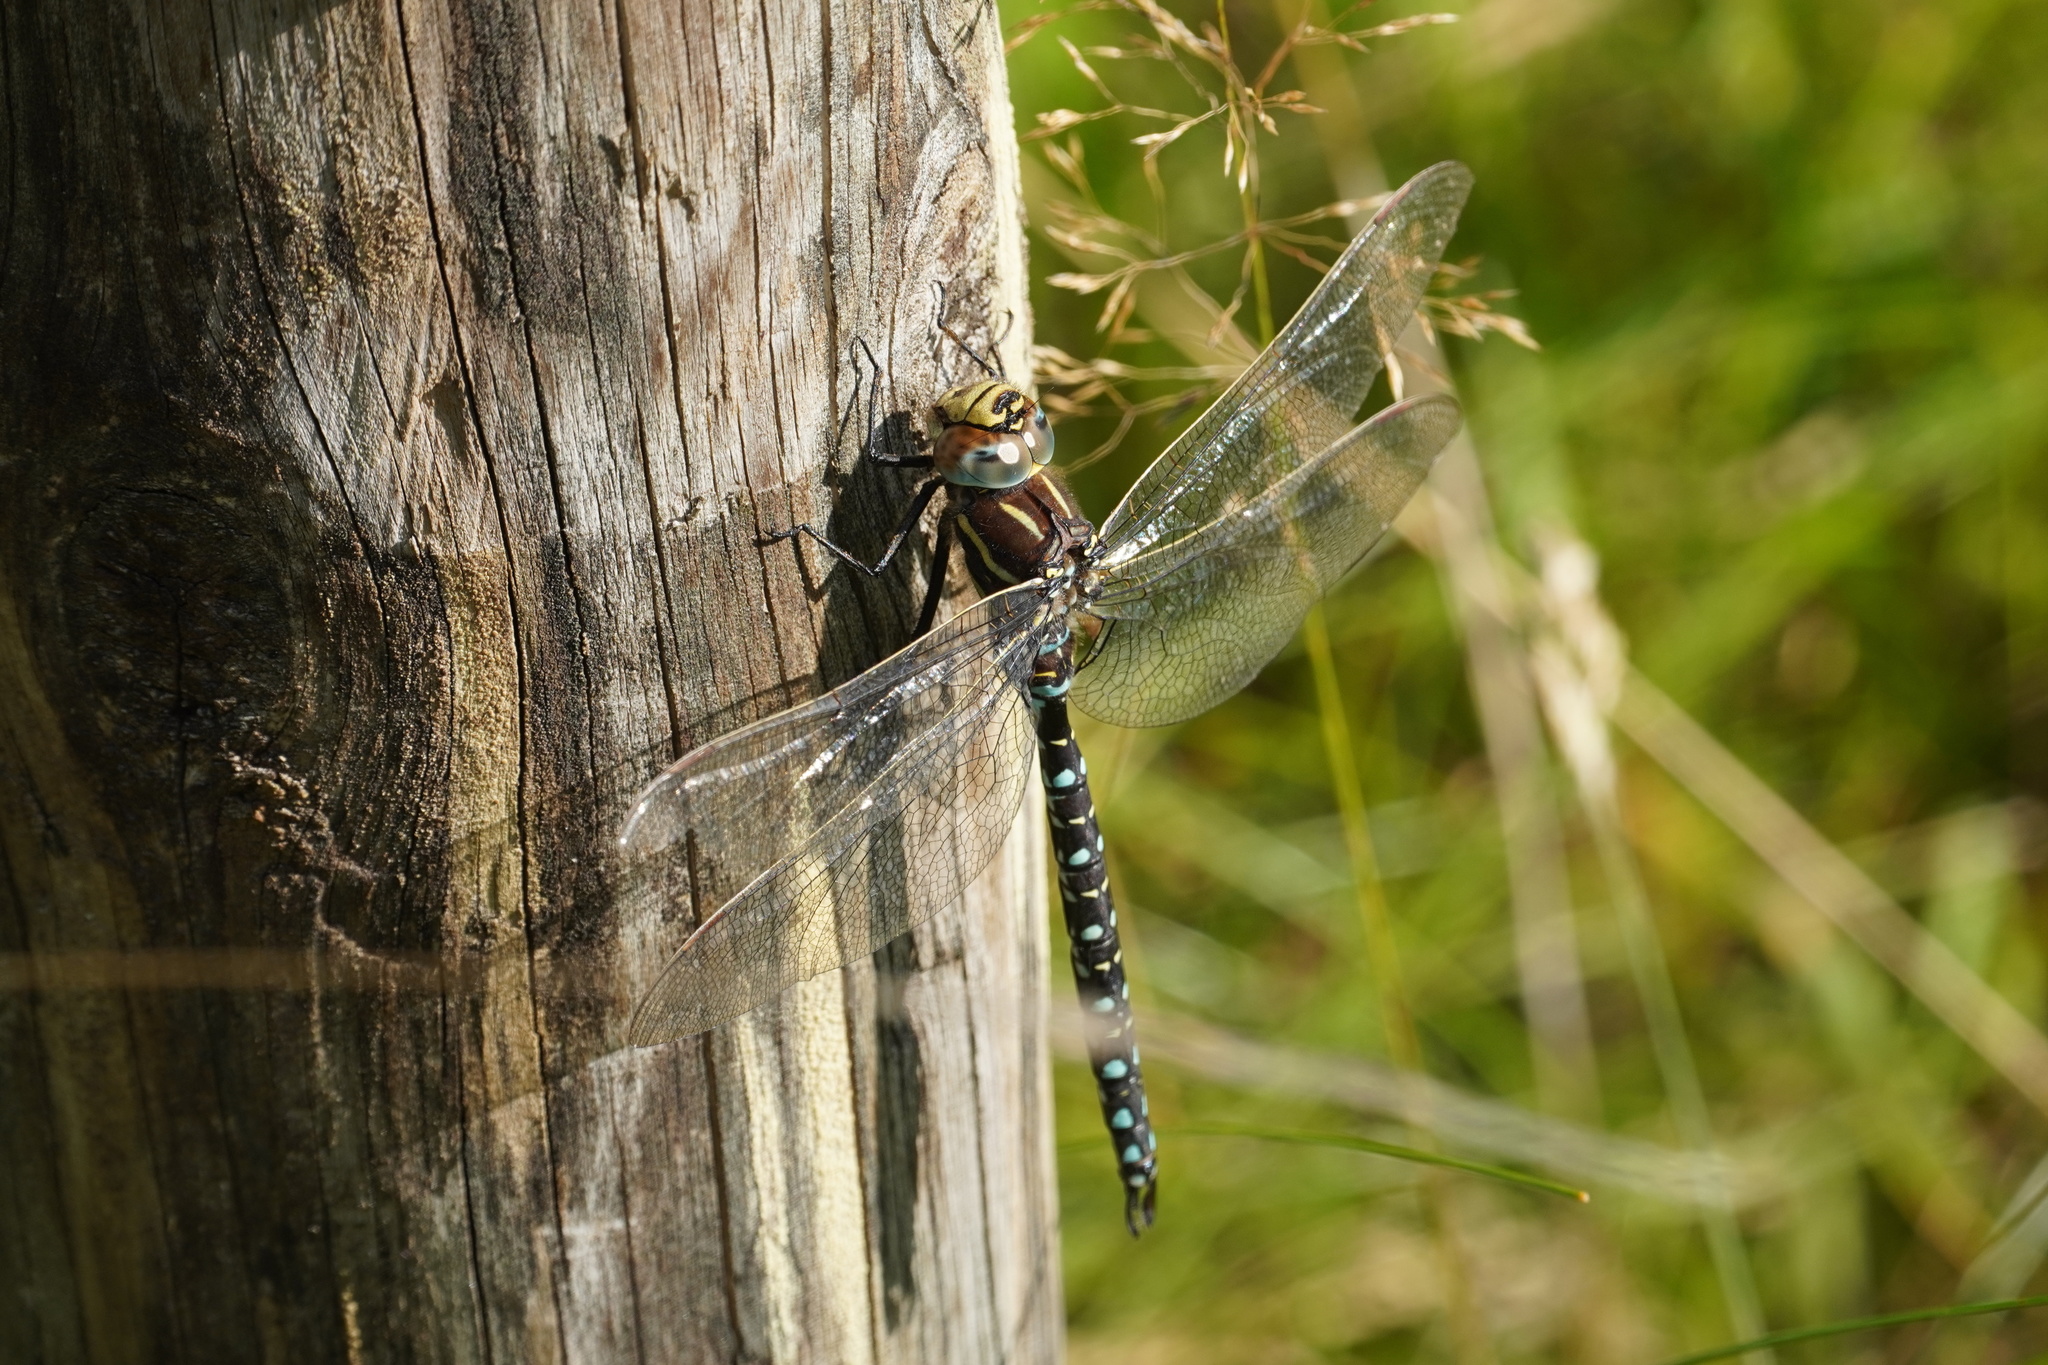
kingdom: Animalia
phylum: Arthropoda
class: Insecta
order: Odonata
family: Aeshnidae
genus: Aeshna
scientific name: Aeshna juncea
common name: Moorland hawker
